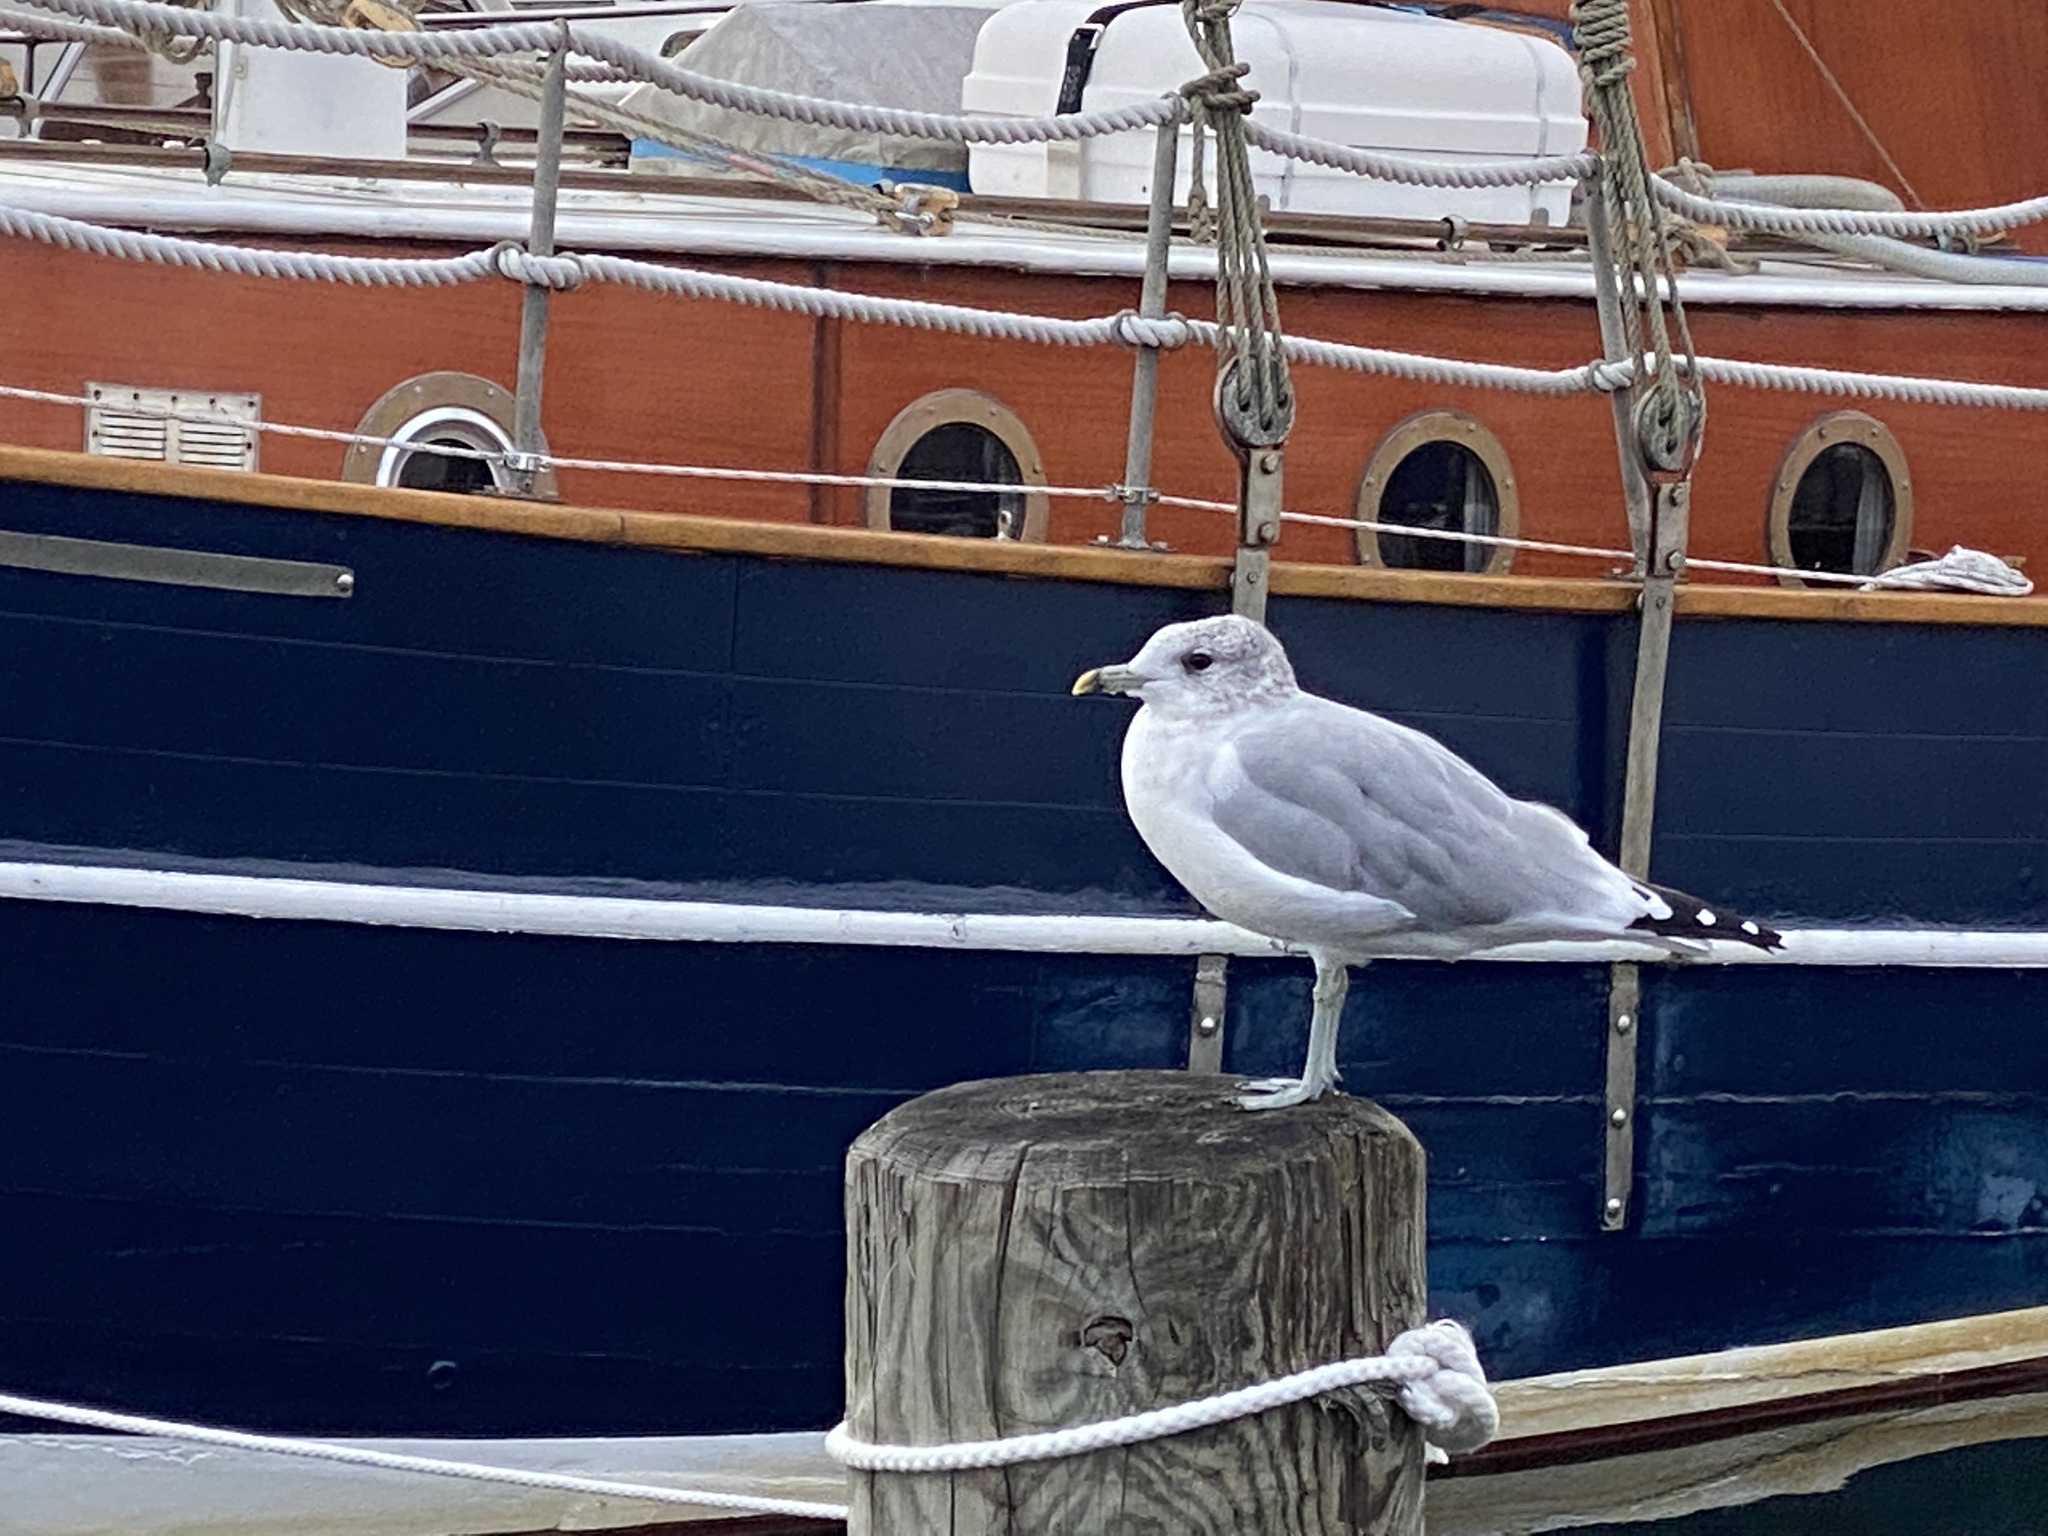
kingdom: Animalia
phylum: Chordata
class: Aves
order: Charadriiformes
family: Laridae
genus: Larus
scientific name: Larus canus
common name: Mew gull
